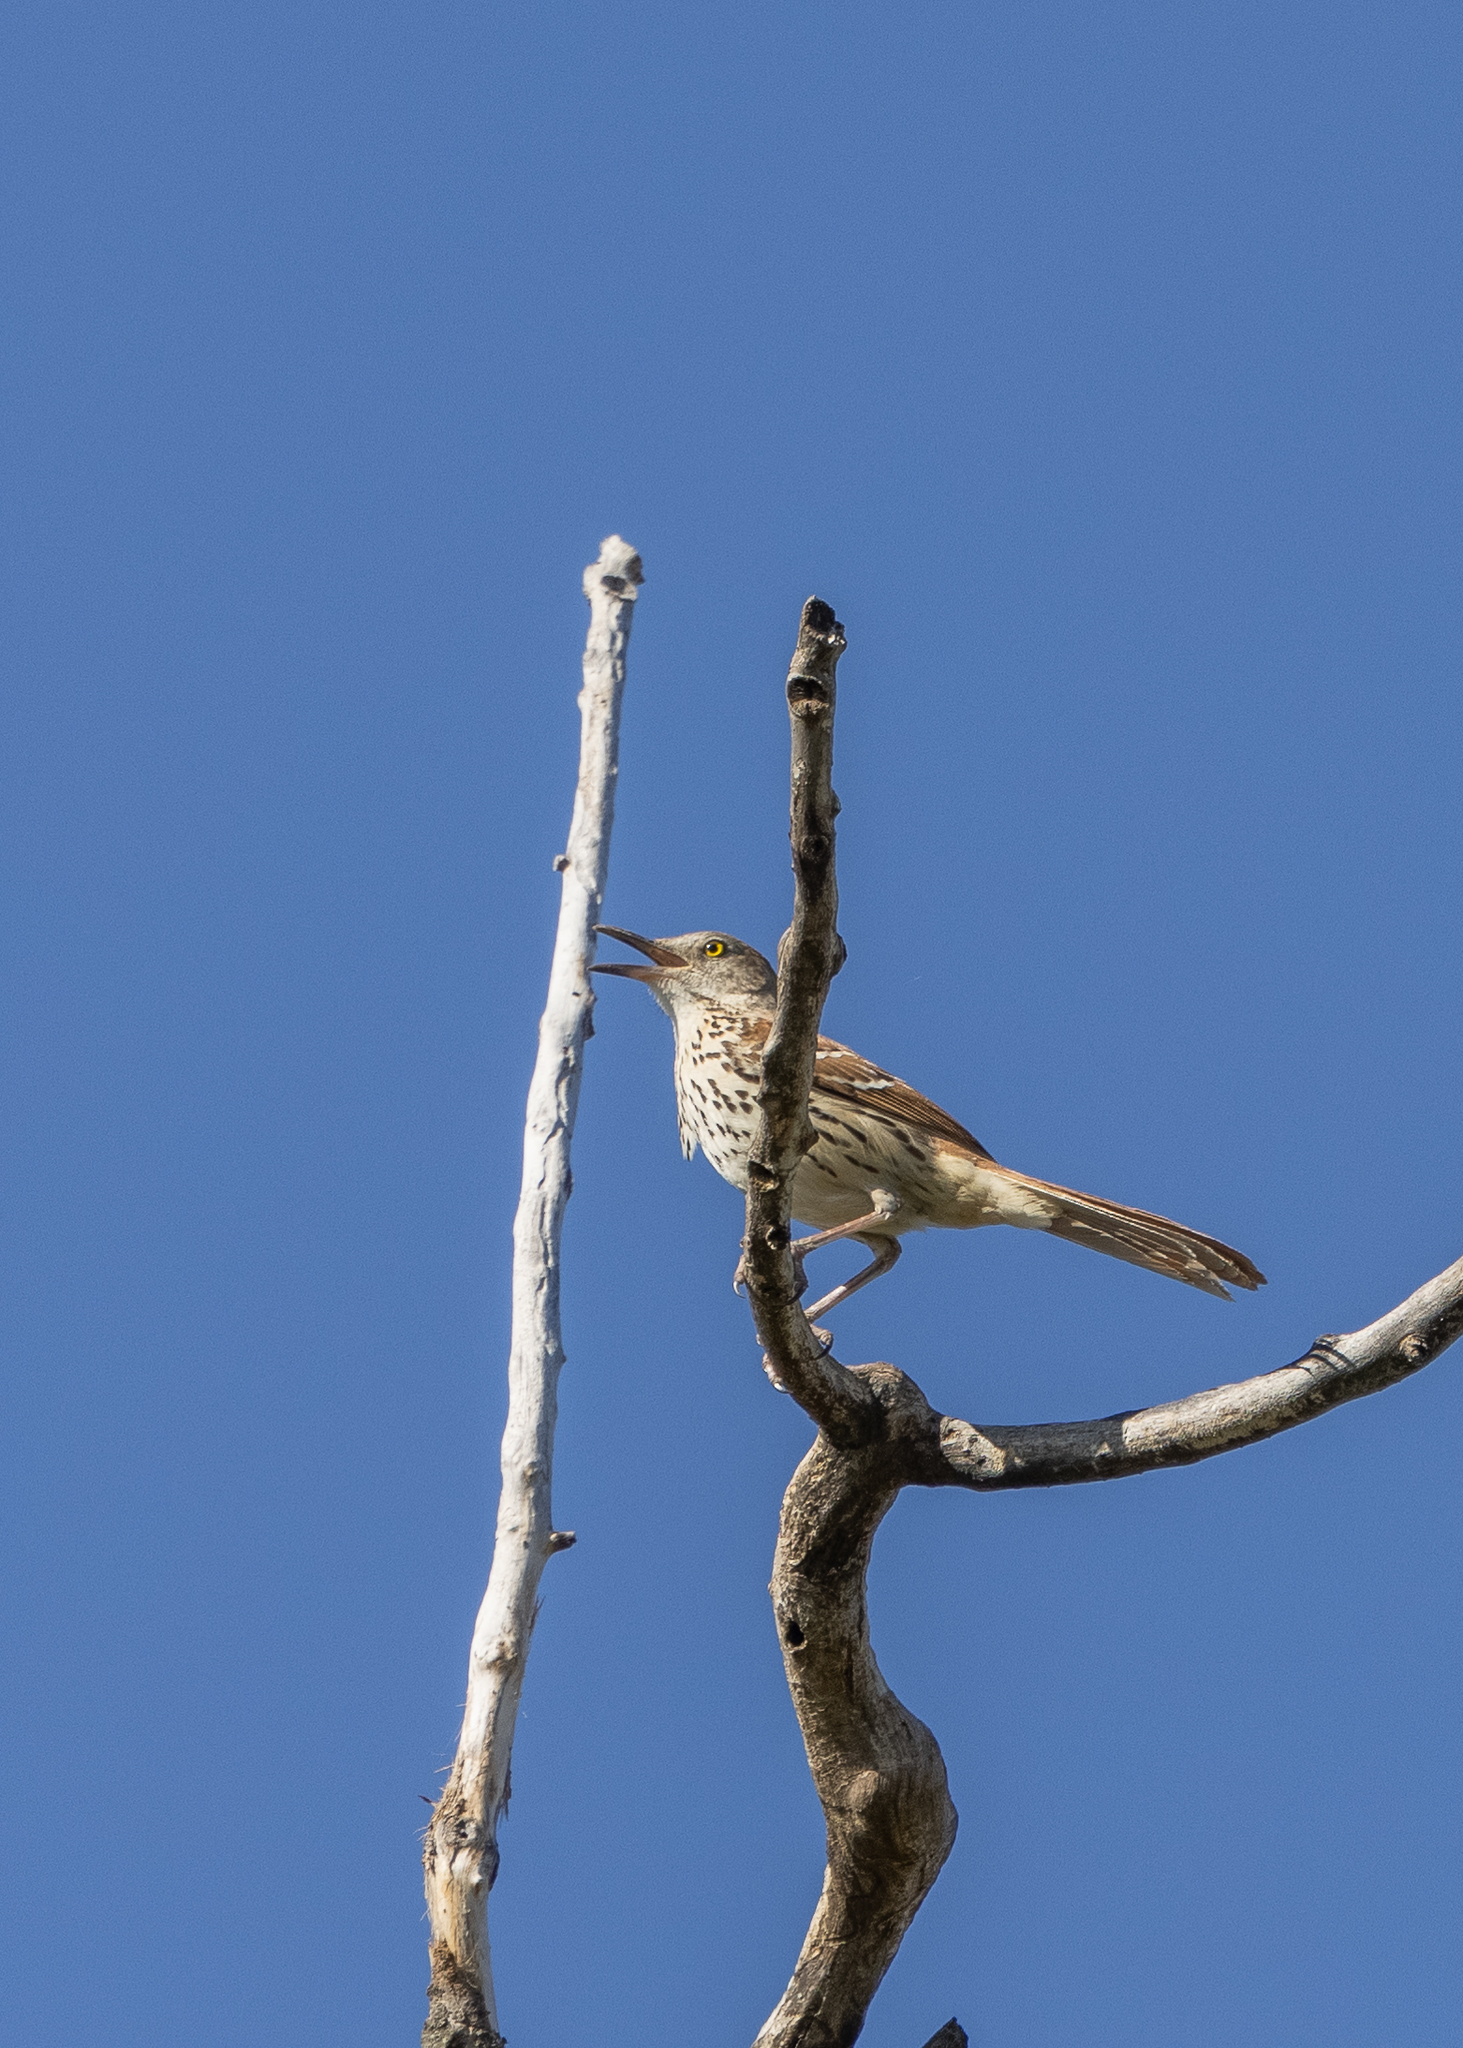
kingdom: Animalia
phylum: Chordata
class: Aves
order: Passeriformes
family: Mimidae
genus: Toxostoma
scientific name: Toxostoma rufum
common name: Brown thrasher
